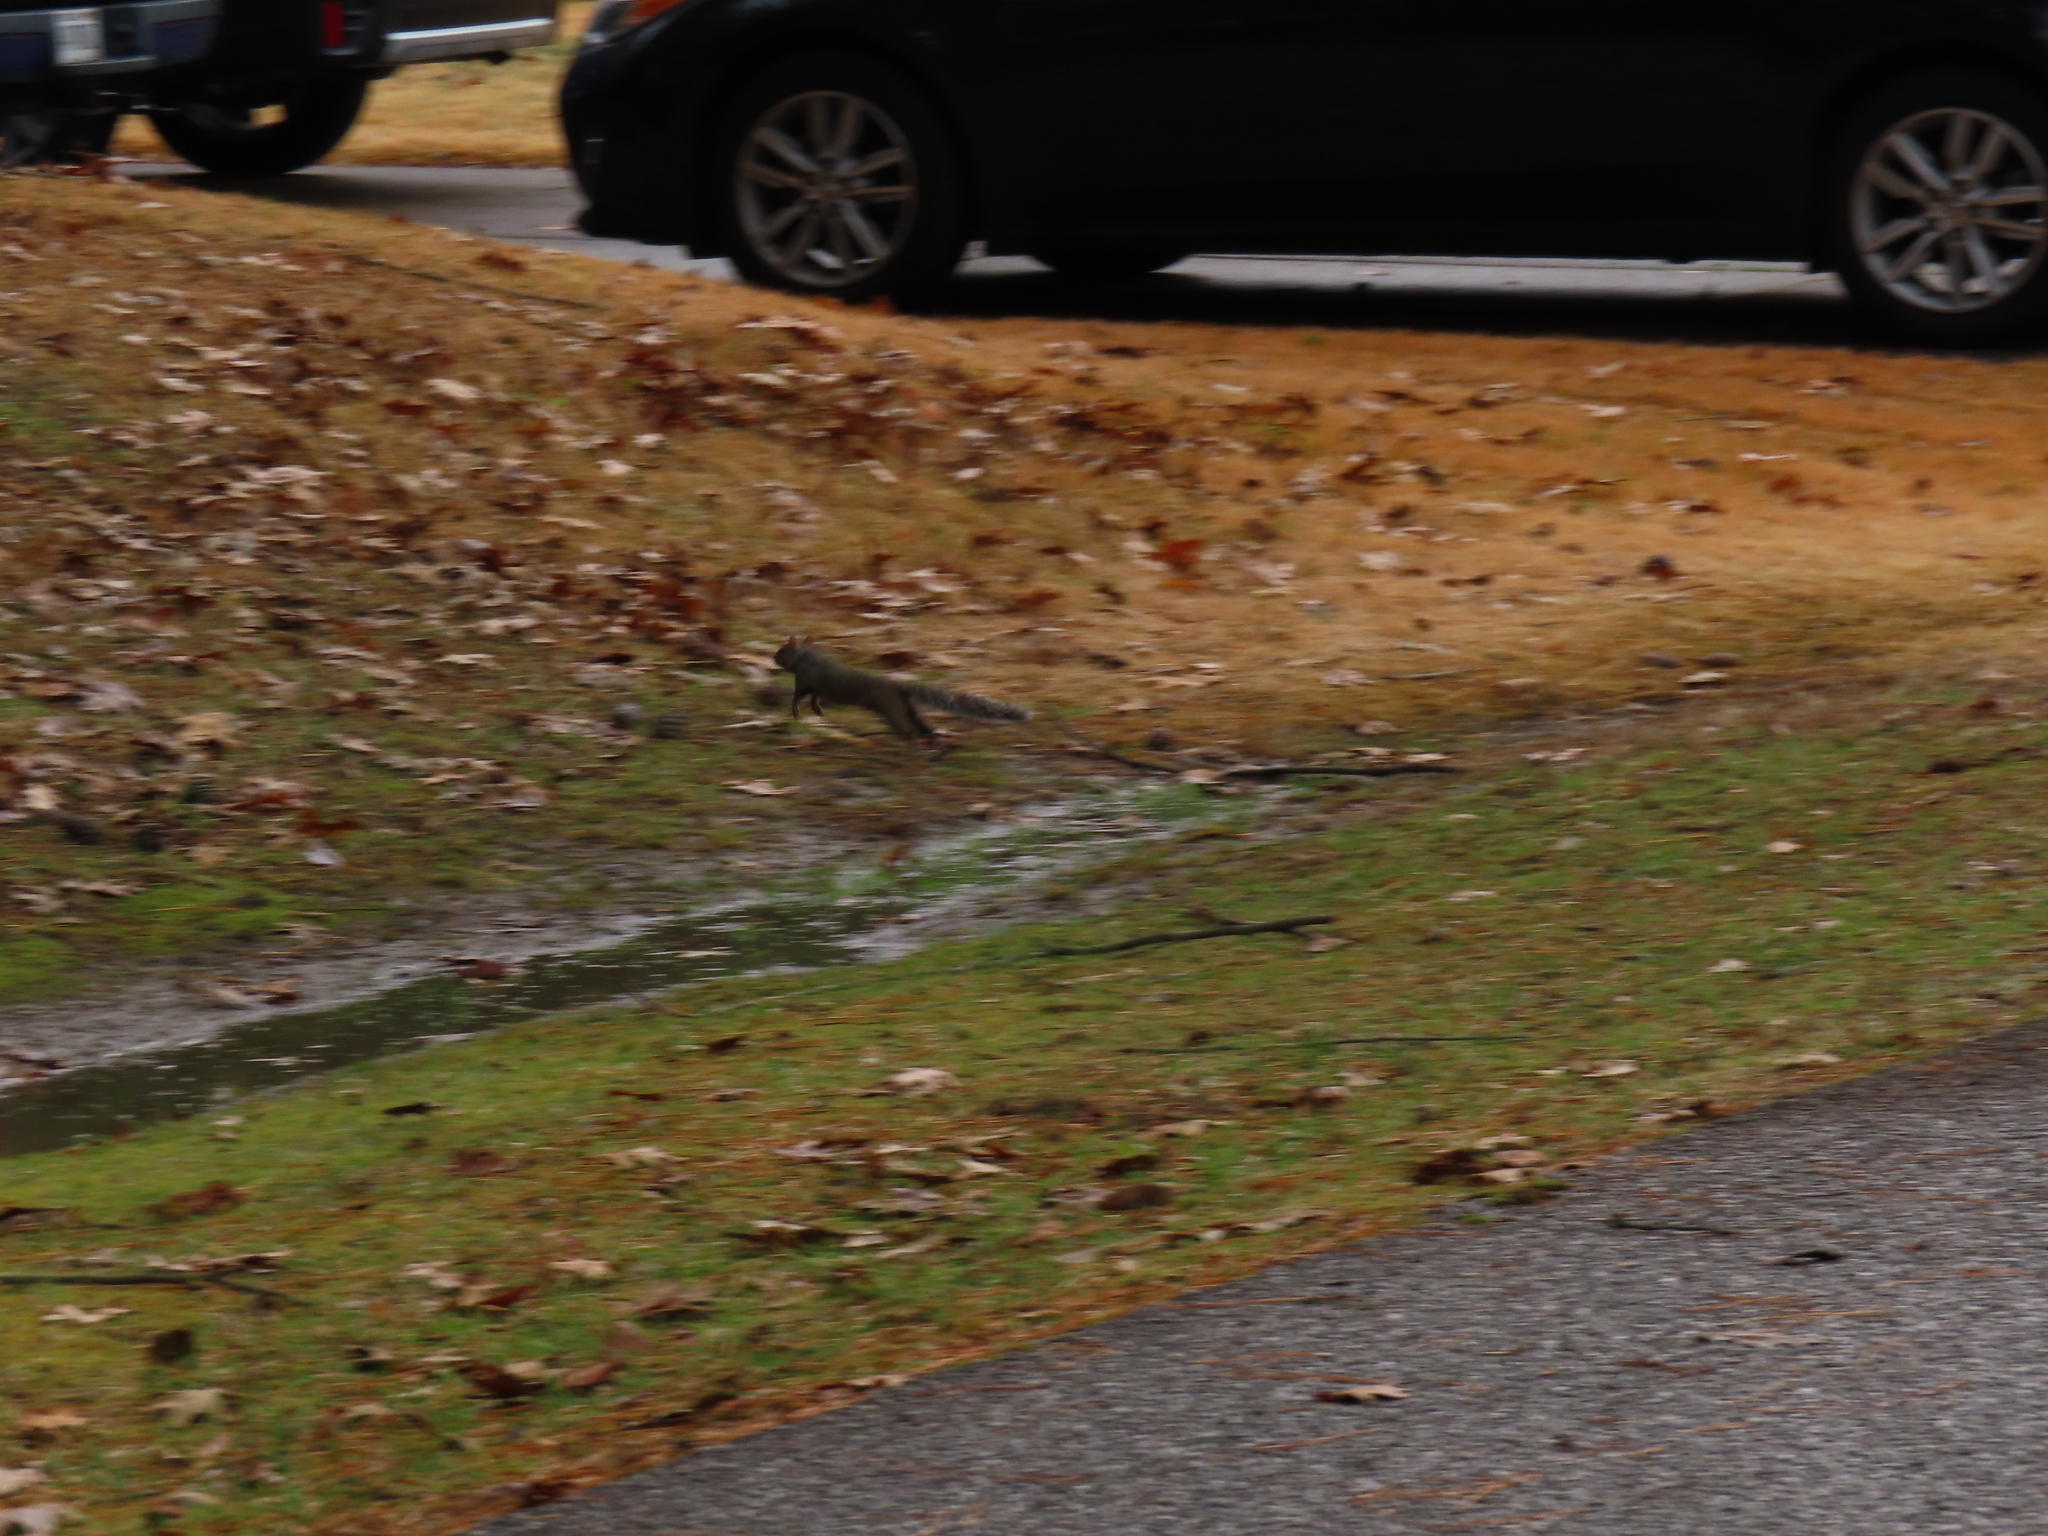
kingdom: Animalia
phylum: Chordata
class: Mammalia
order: Rodentia
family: Sciuridae
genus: Sciurus
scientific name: Sciurus carolinensis
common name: Eastern gray squirrel
